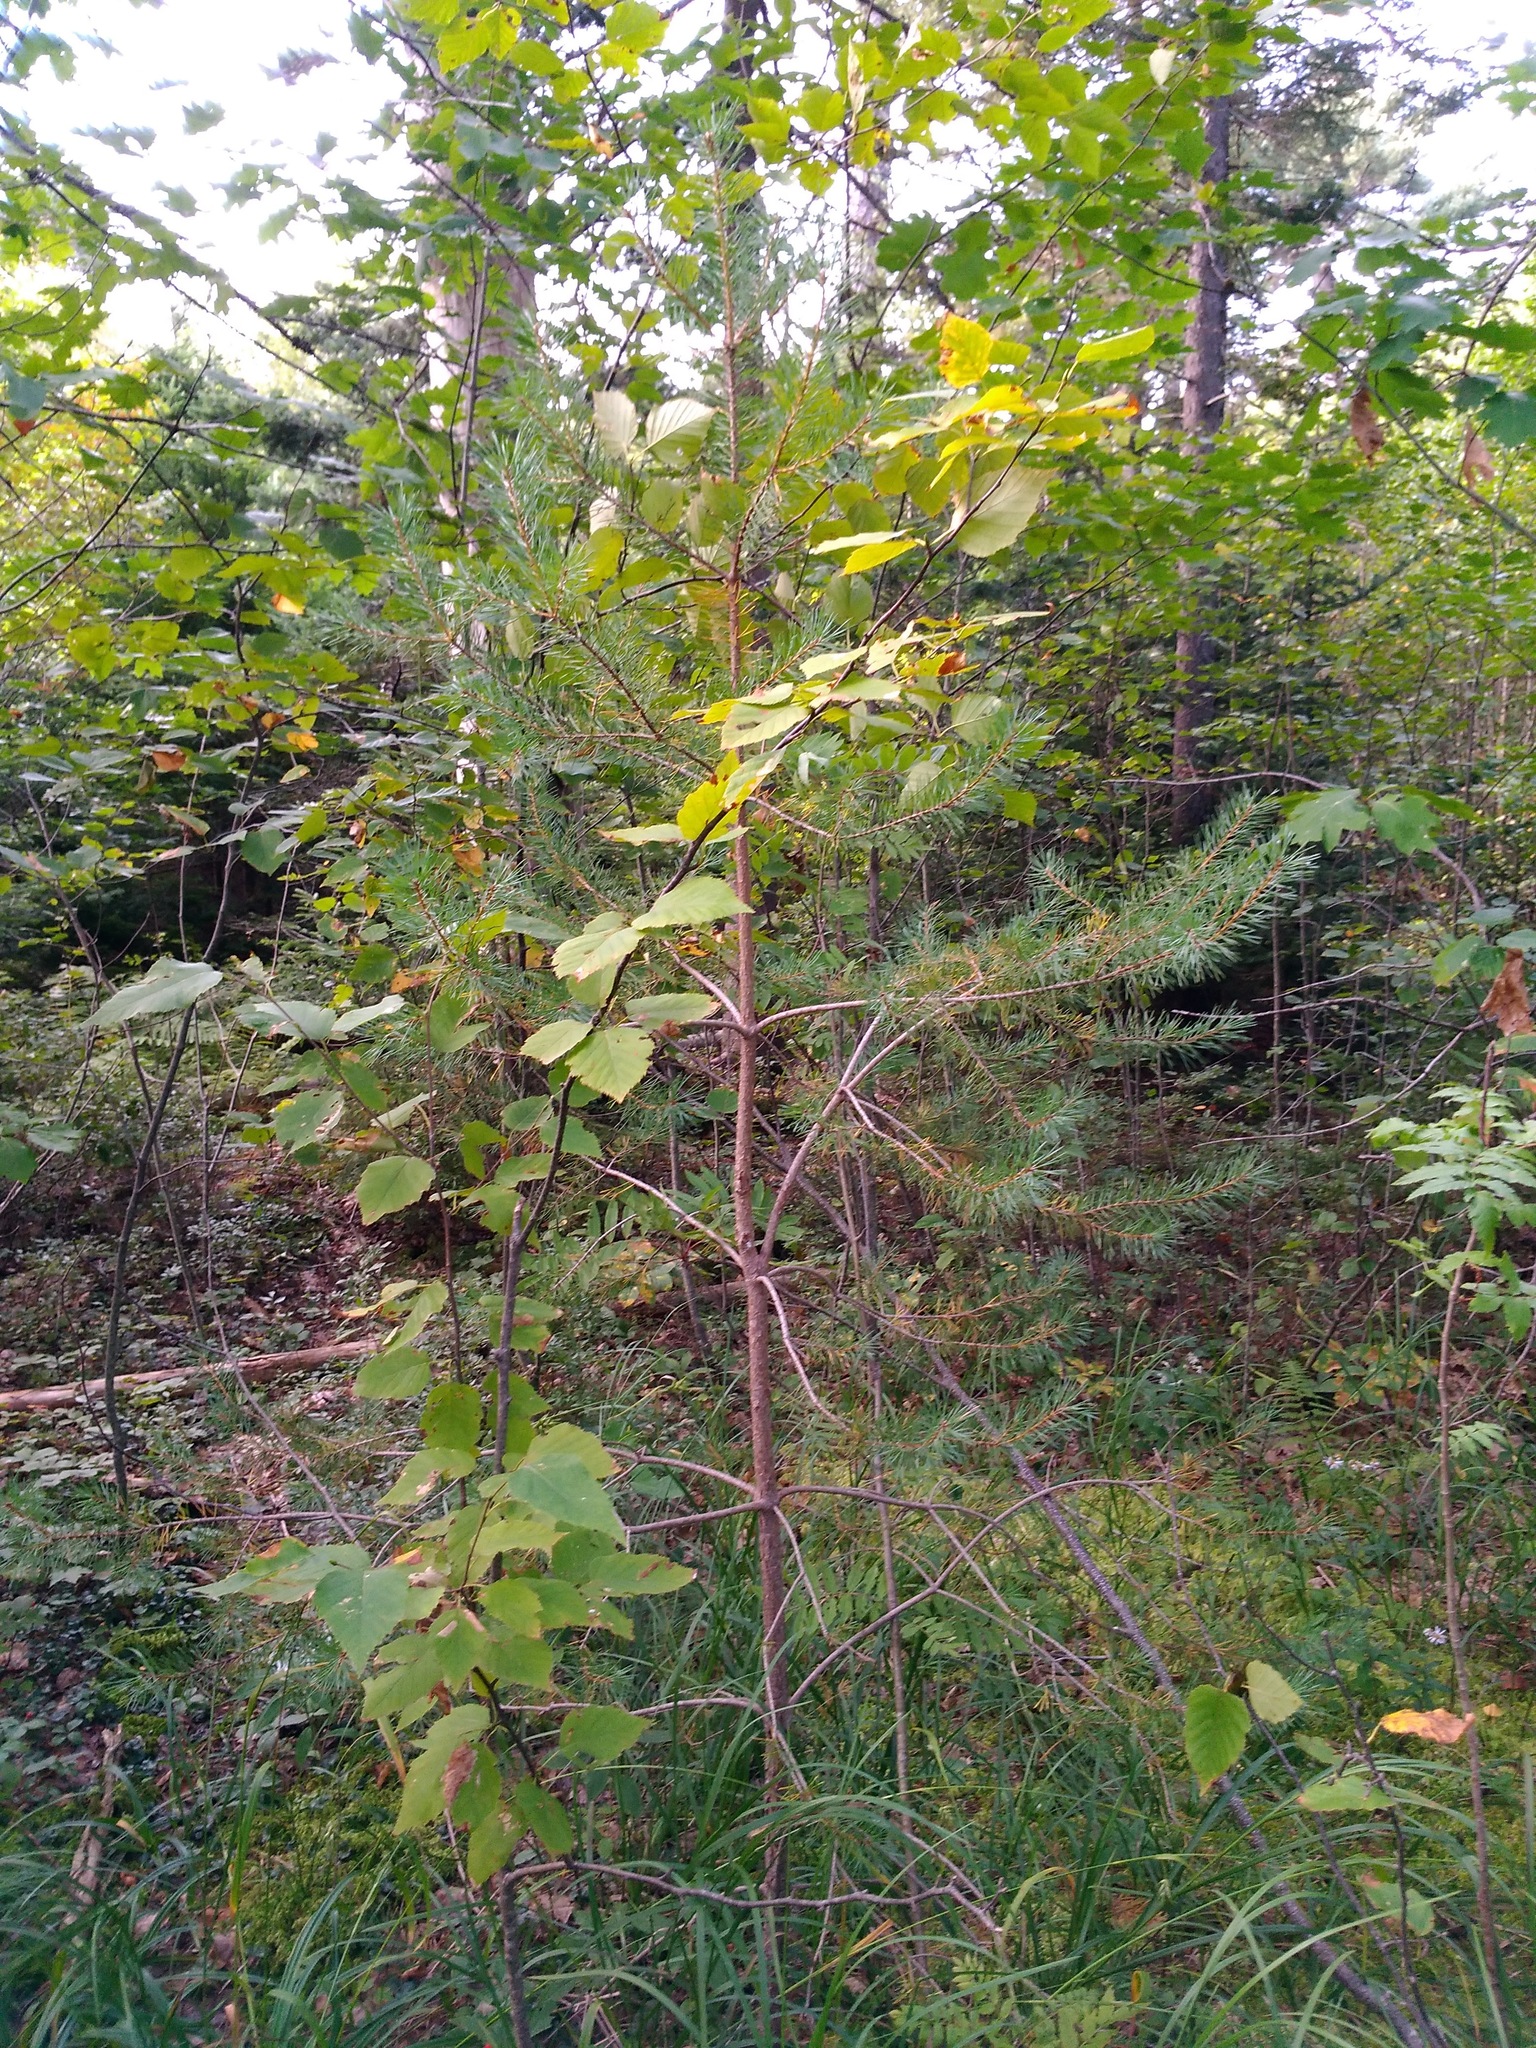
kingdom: Plantae
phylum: Tracheophyta
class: Pinopsida
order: Pinales
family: Pinaceae
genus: Pinus
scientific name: Pinus sylvestris
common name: Scots pine
